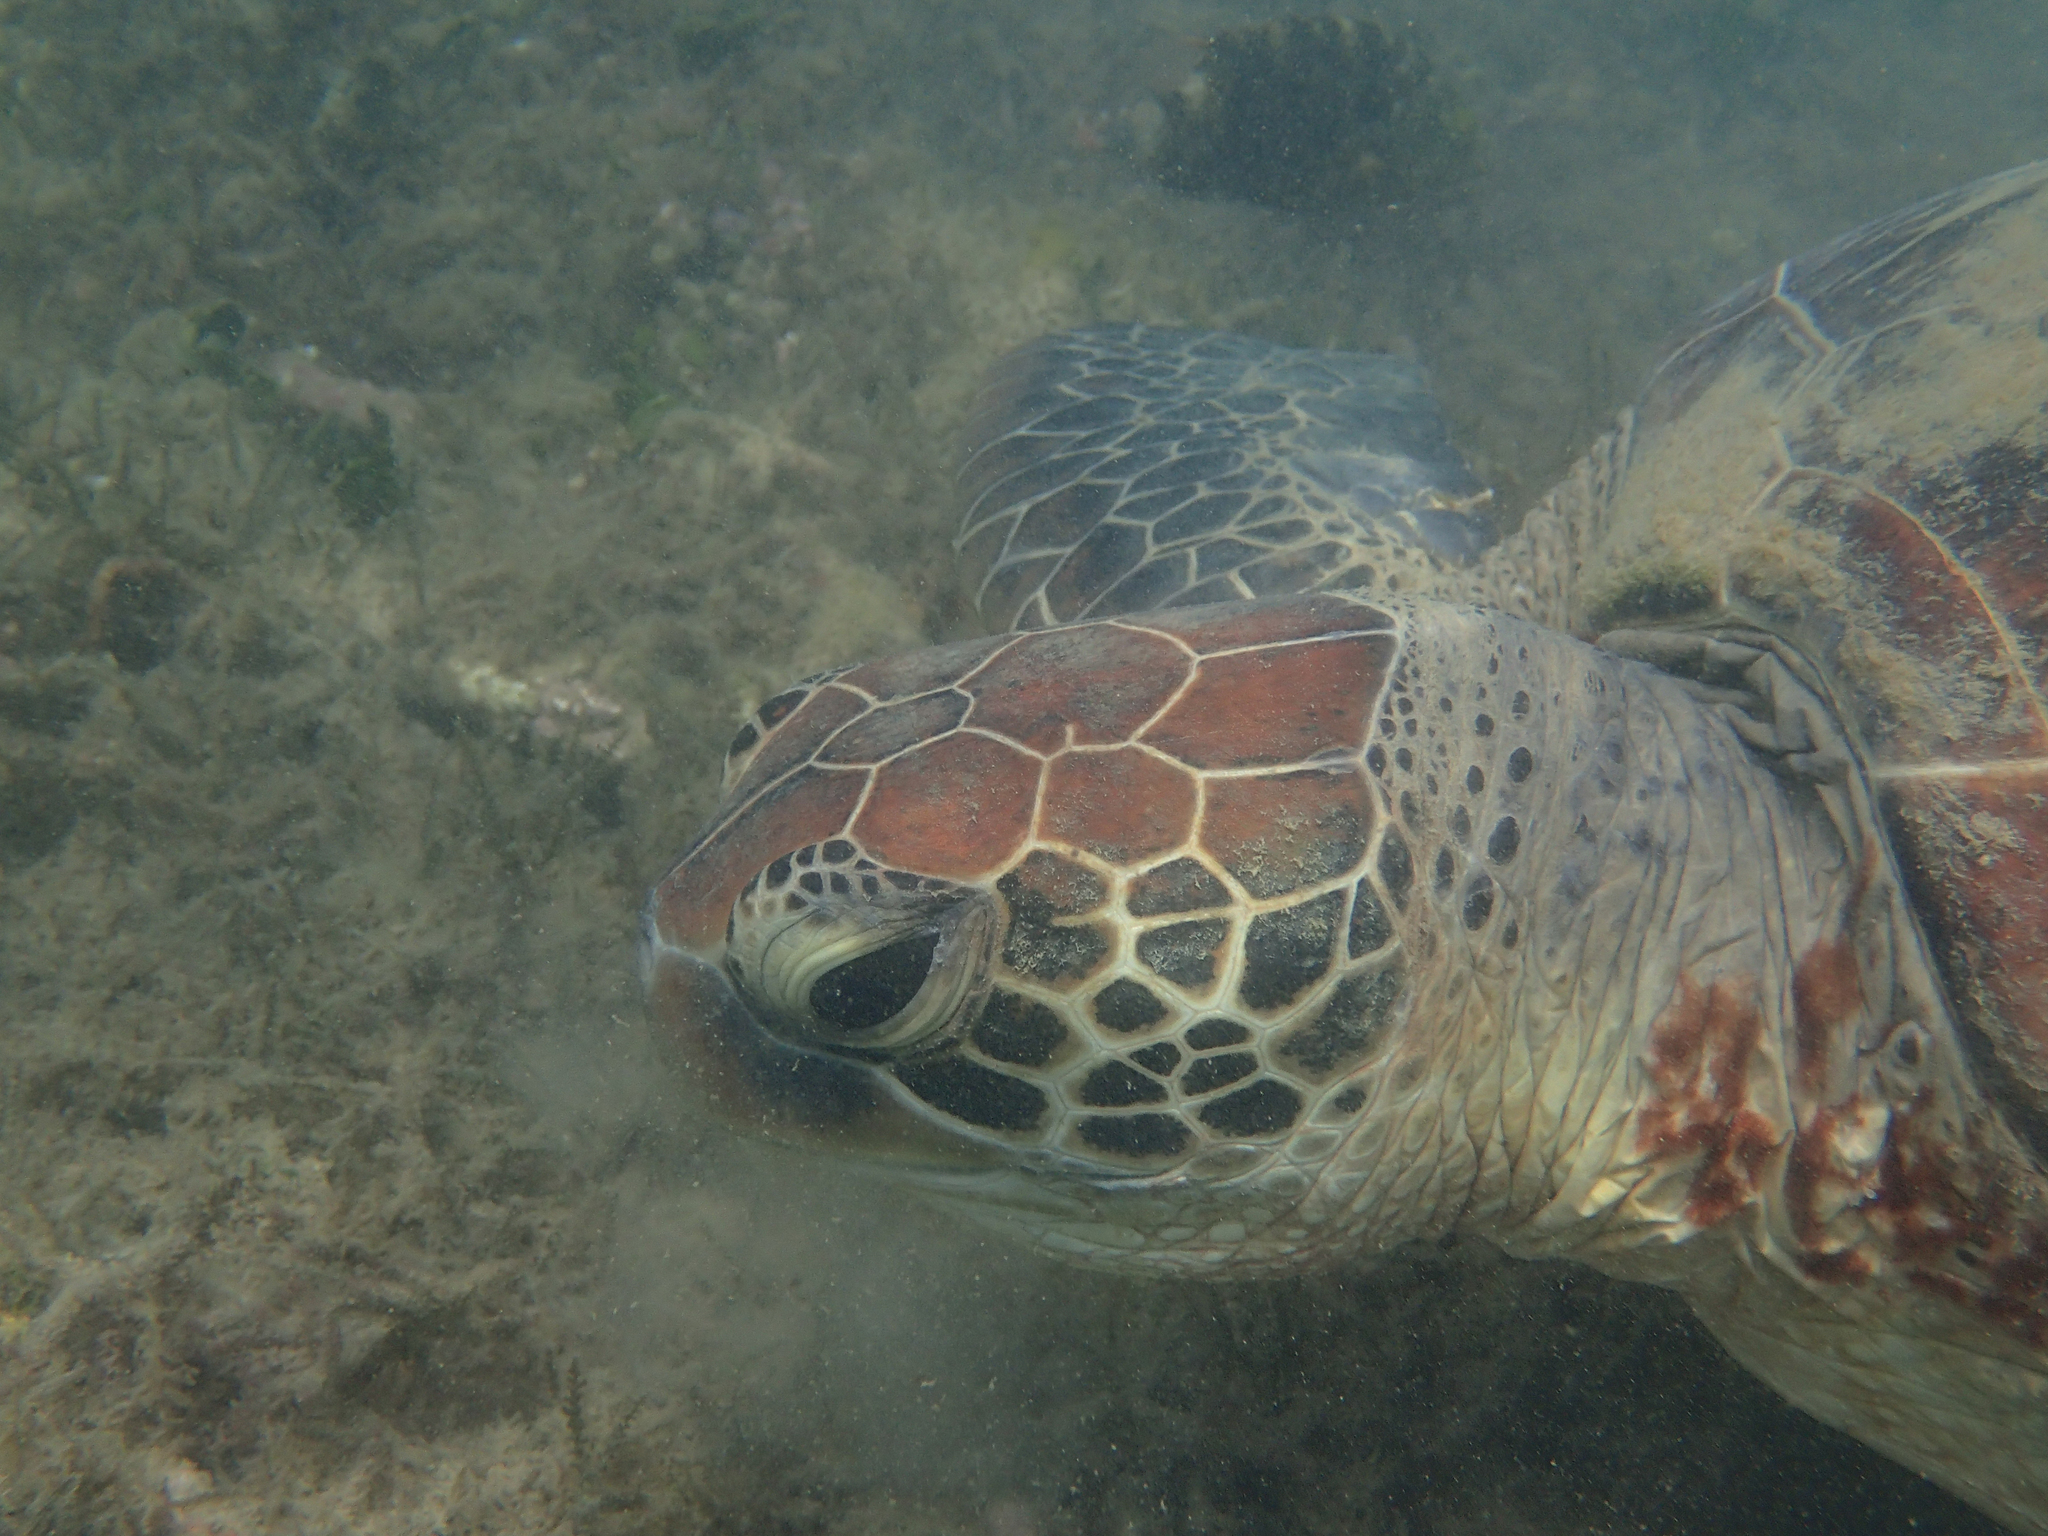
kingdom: Animalia
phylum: Chordata
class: Testudines
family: Cheloniidae
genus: Chelonia
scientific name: Chelonia mydas
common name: Green turtle
